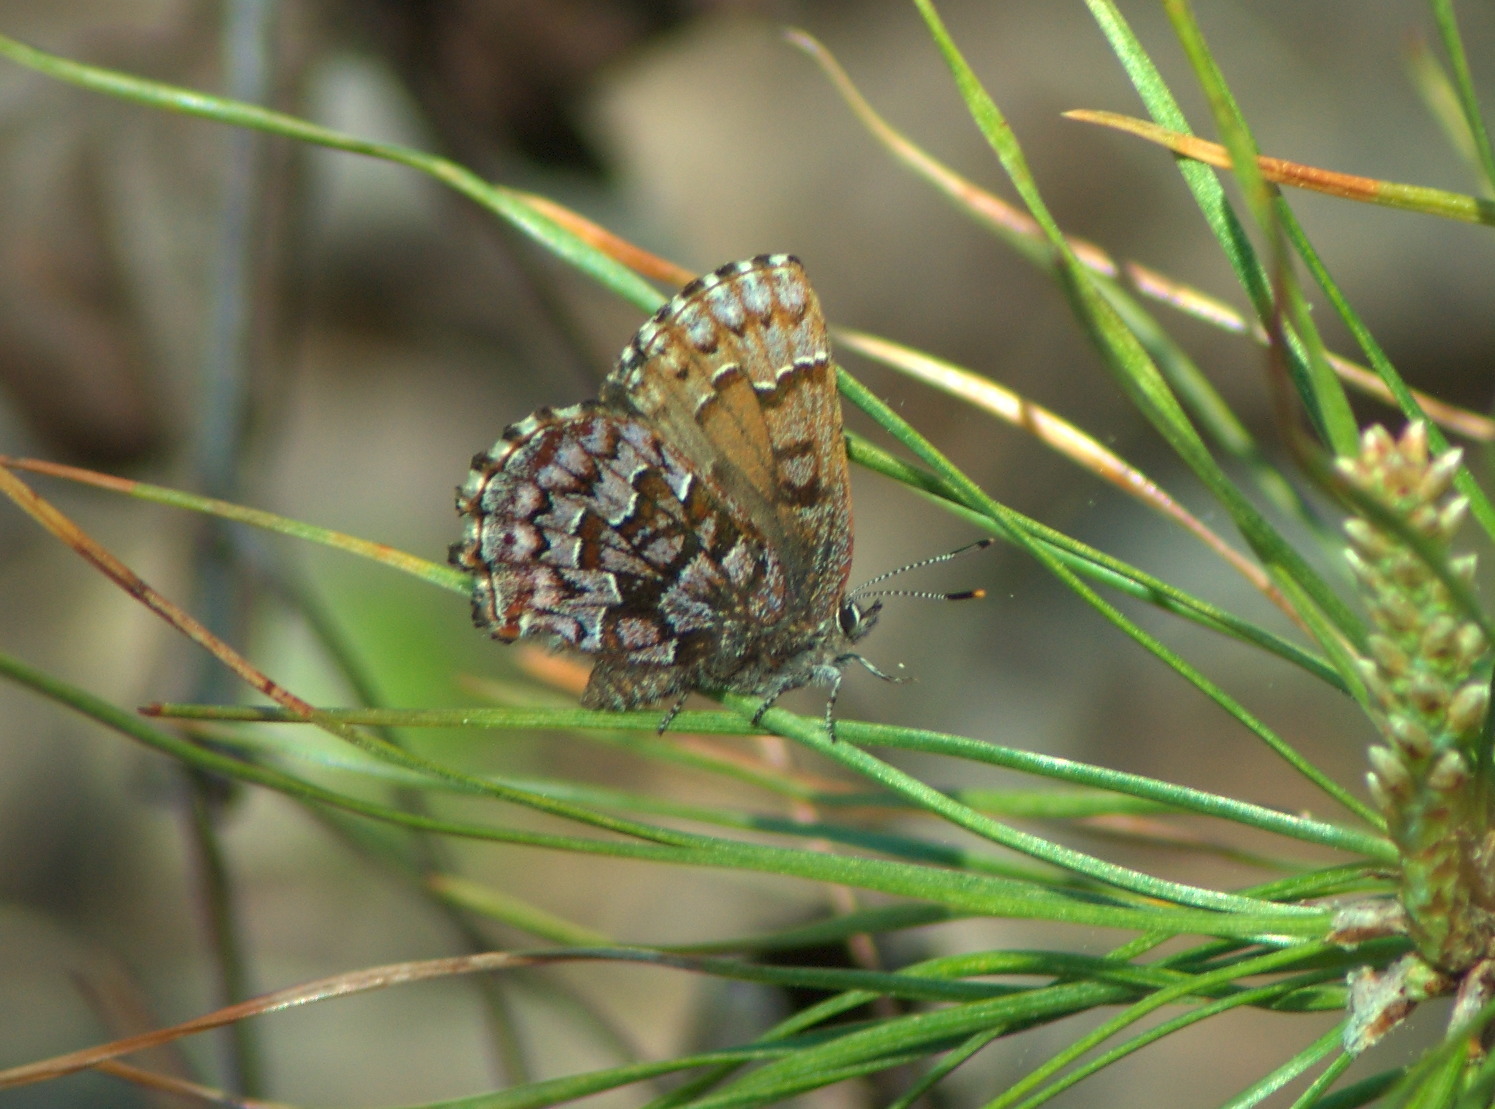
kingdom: Animalia
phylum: Arthropoda
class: Insecta
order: Lepidoptera
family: Lycaenidae
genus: Incisalia
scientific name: Incisalia niphon
